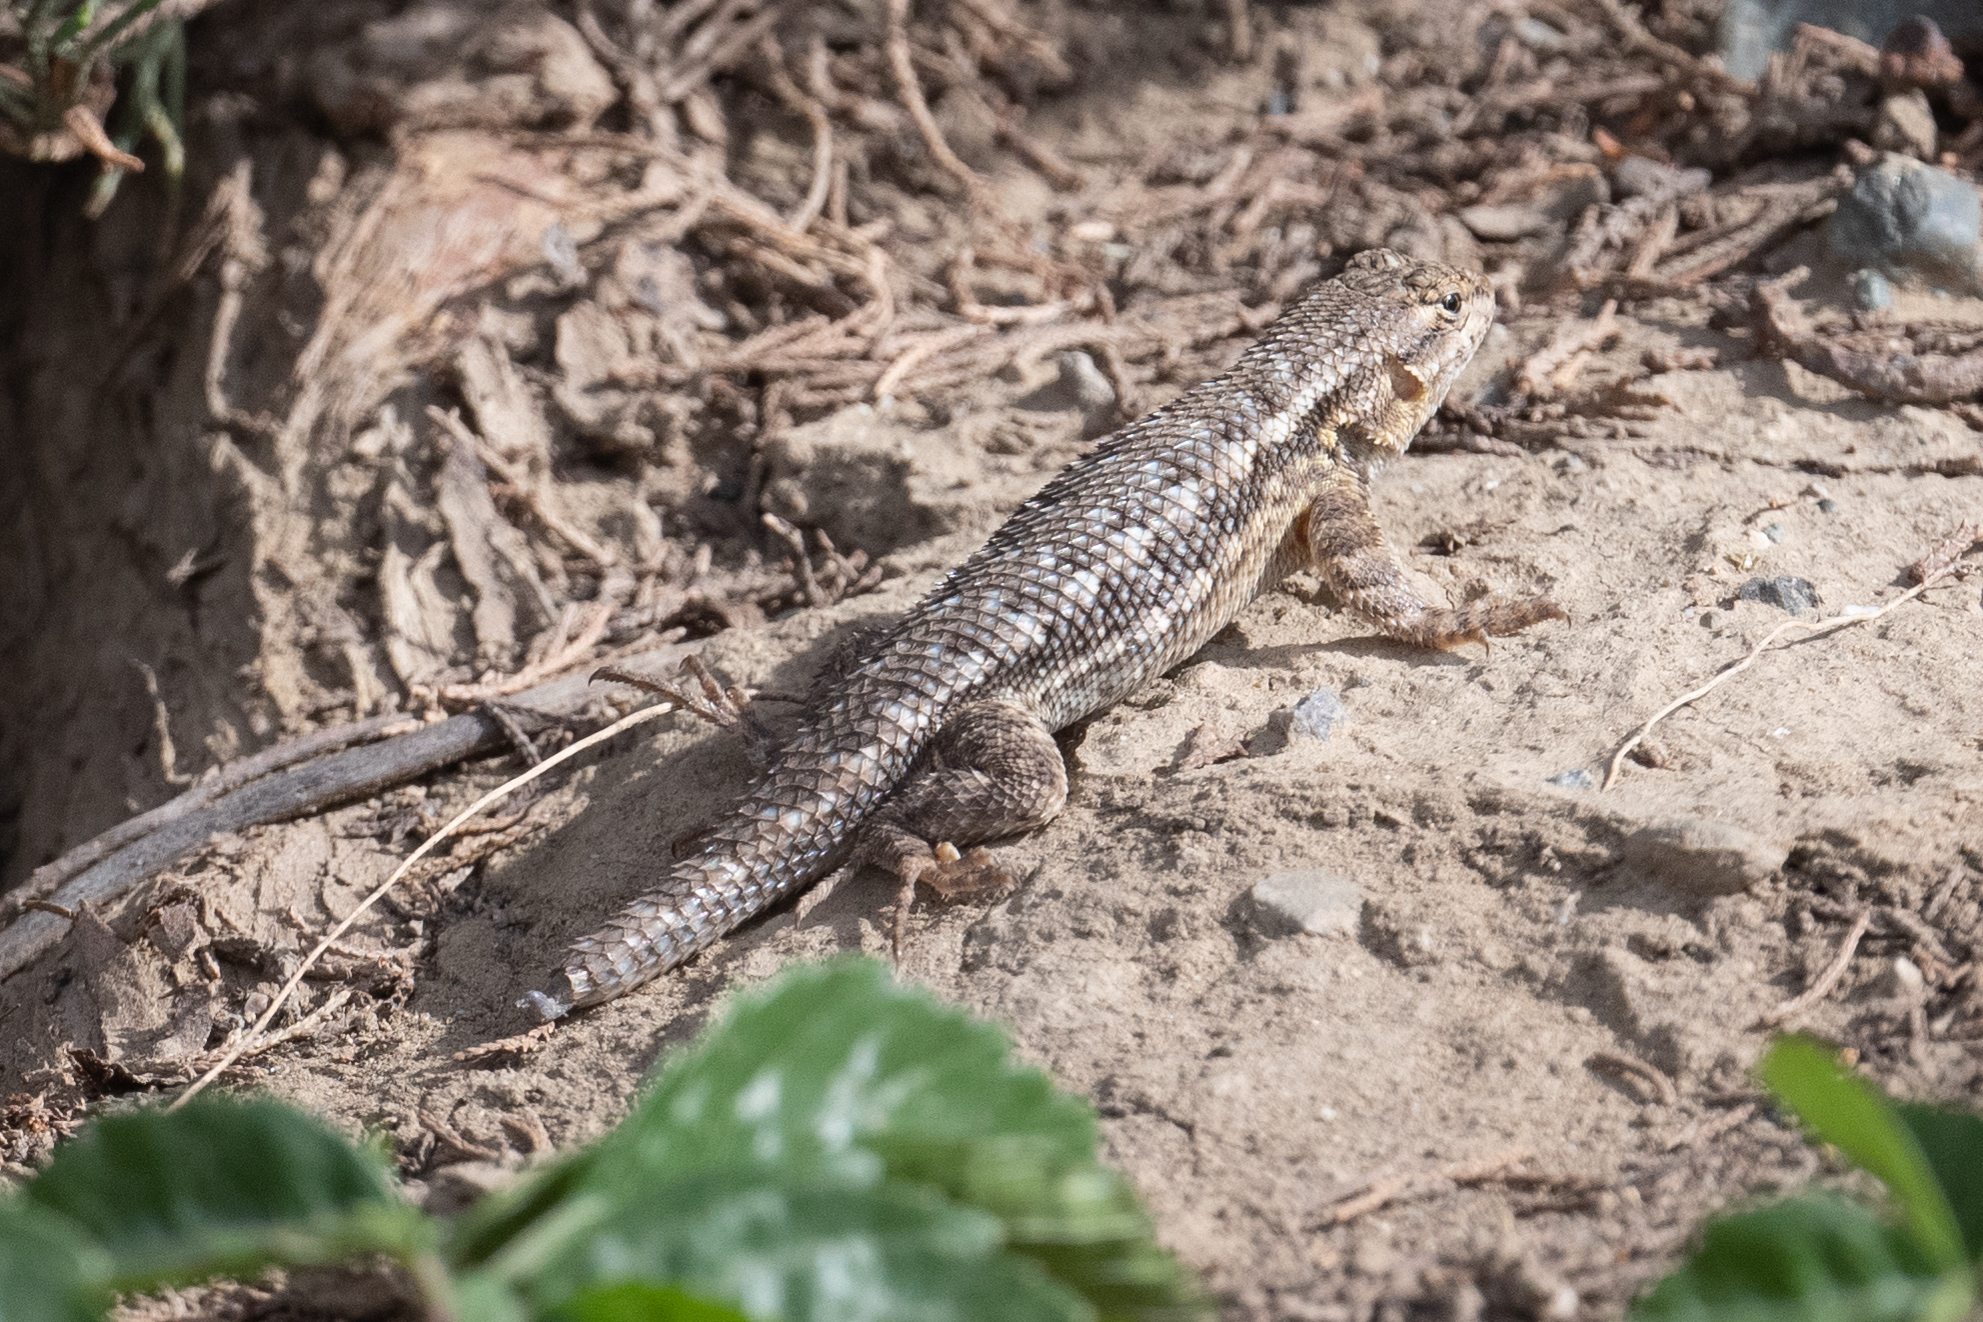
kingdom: Animalia
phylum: Chordata
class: Squamata
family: Phrynosomatidae
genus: Sceloporus
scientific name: Sceloporus occidentalis
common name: Western fence lizard
